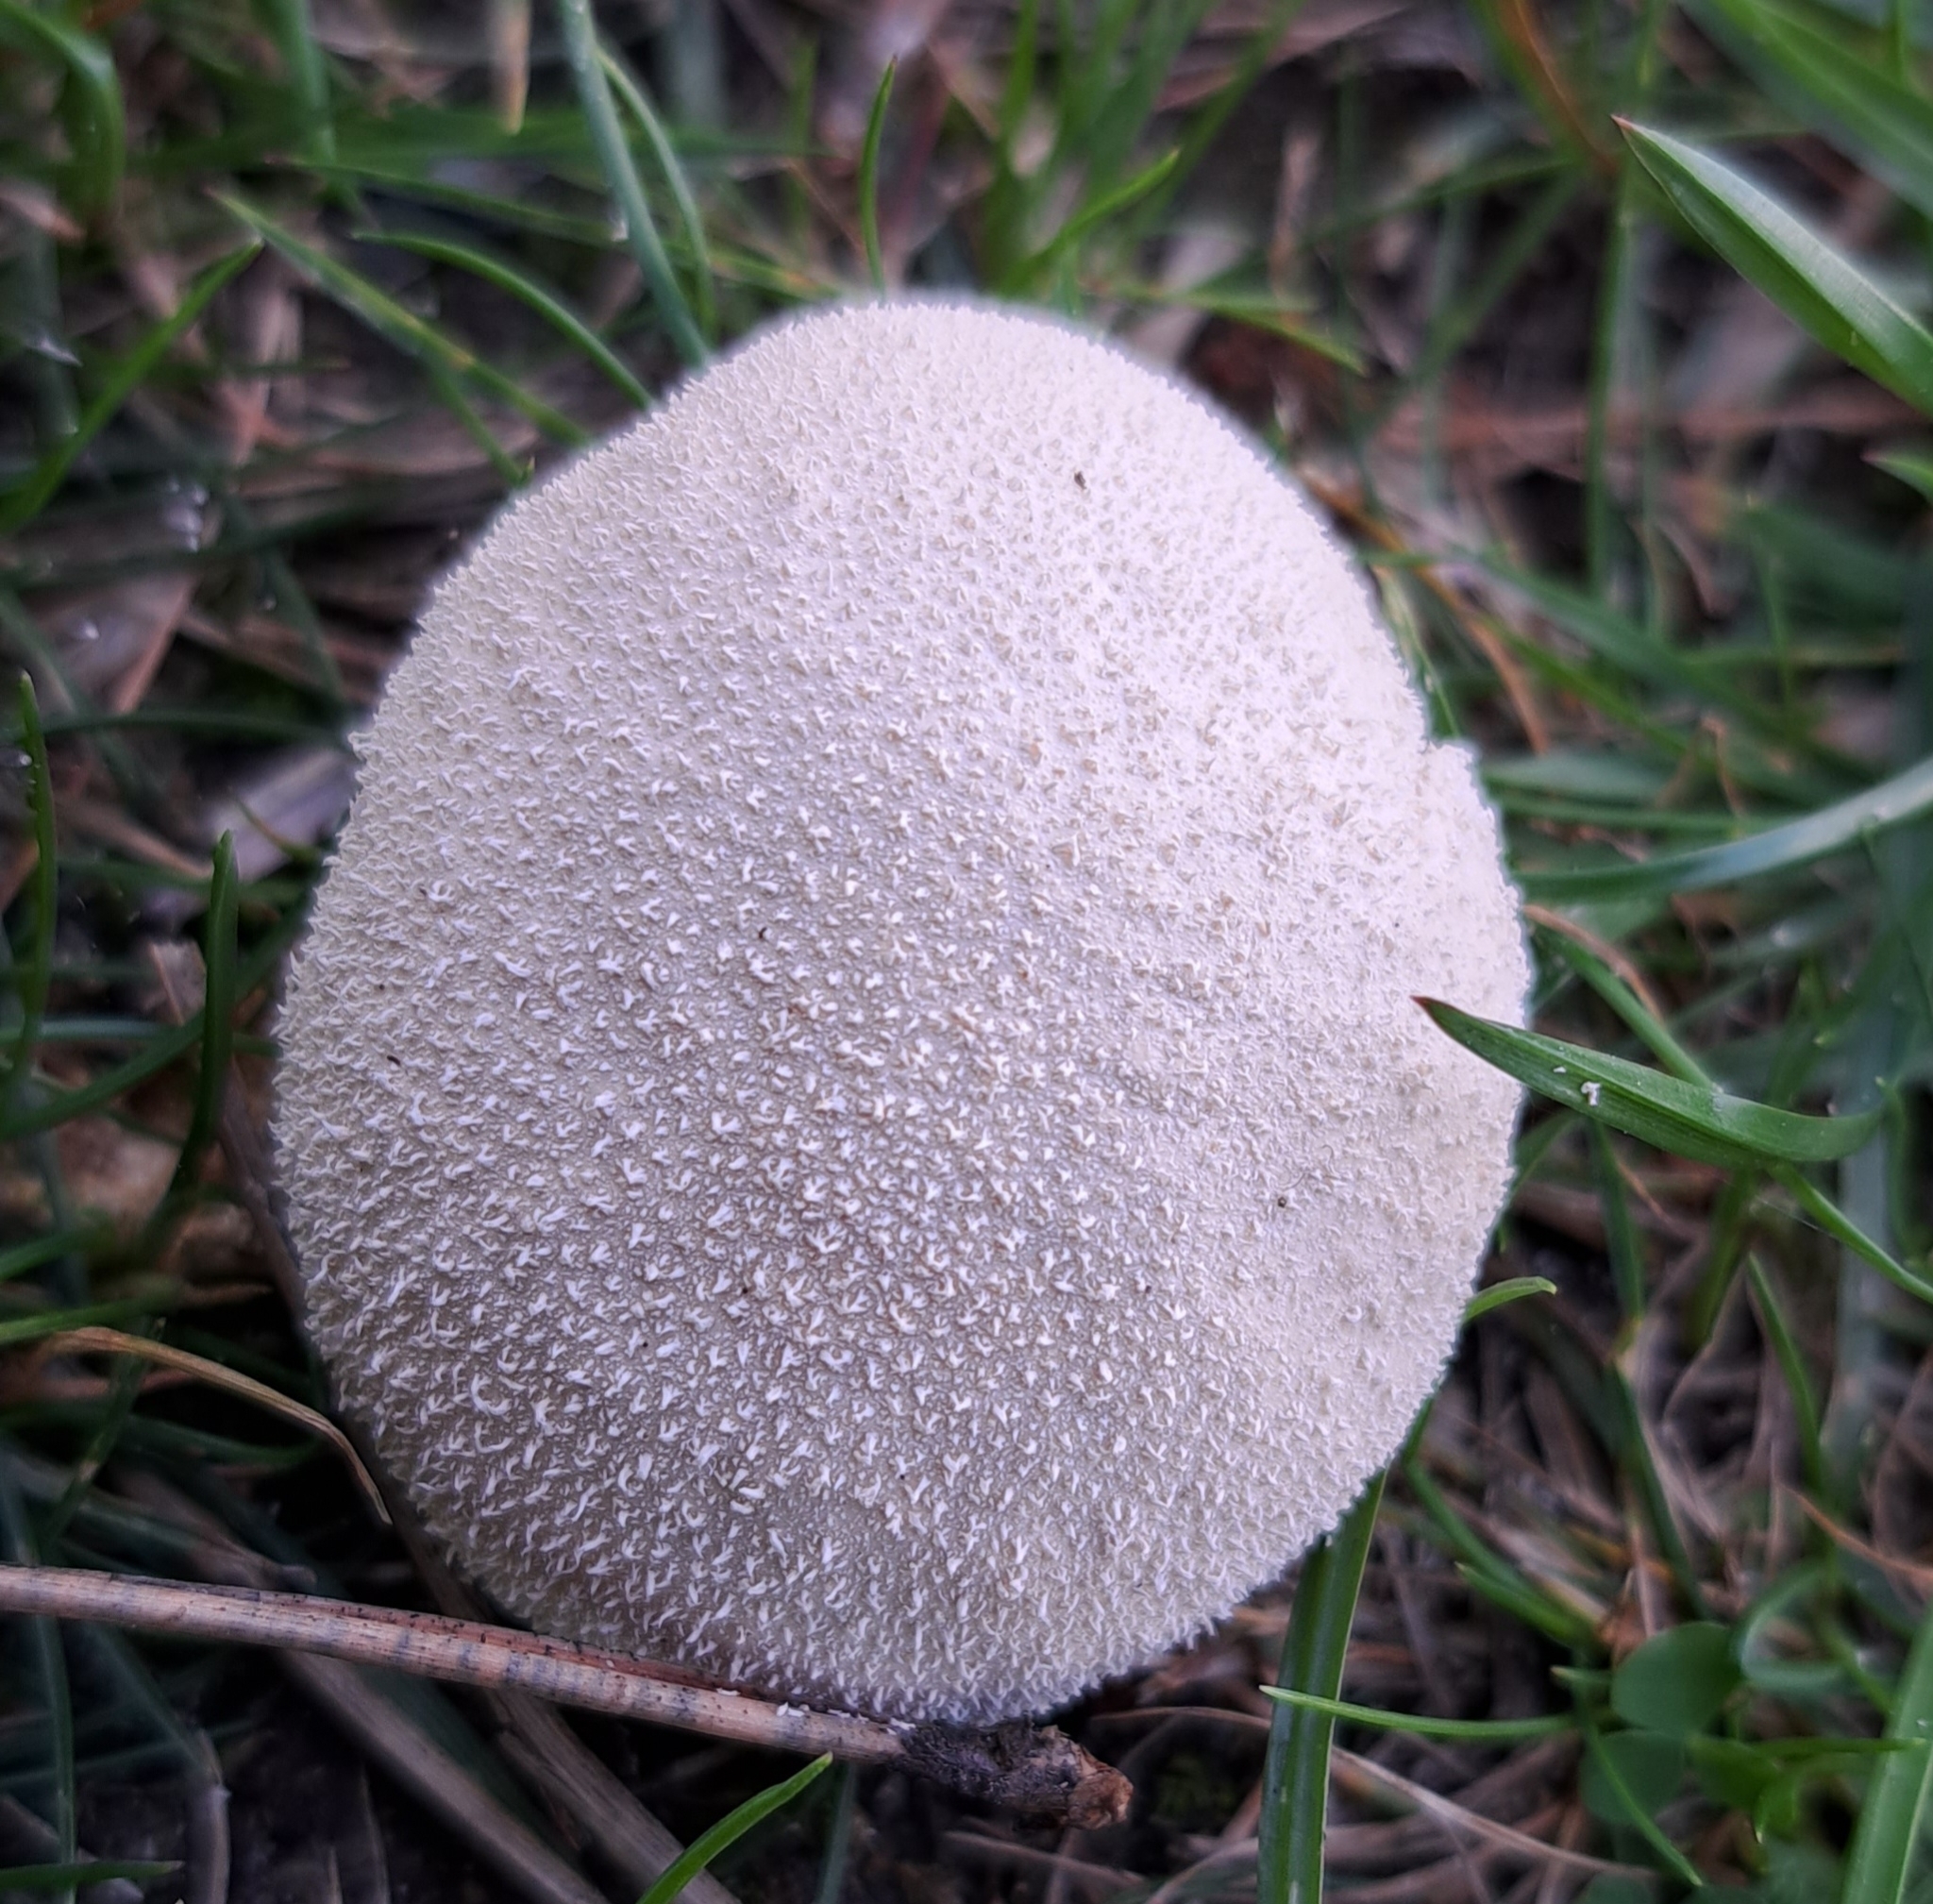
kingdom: Fungi
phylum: Basidiomycota
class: Agaricomycetes
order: Agaricales
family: Lycoperdaceae
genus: Lycoperdon
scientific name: Lycoperdon pratense
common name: Meadow puffball
